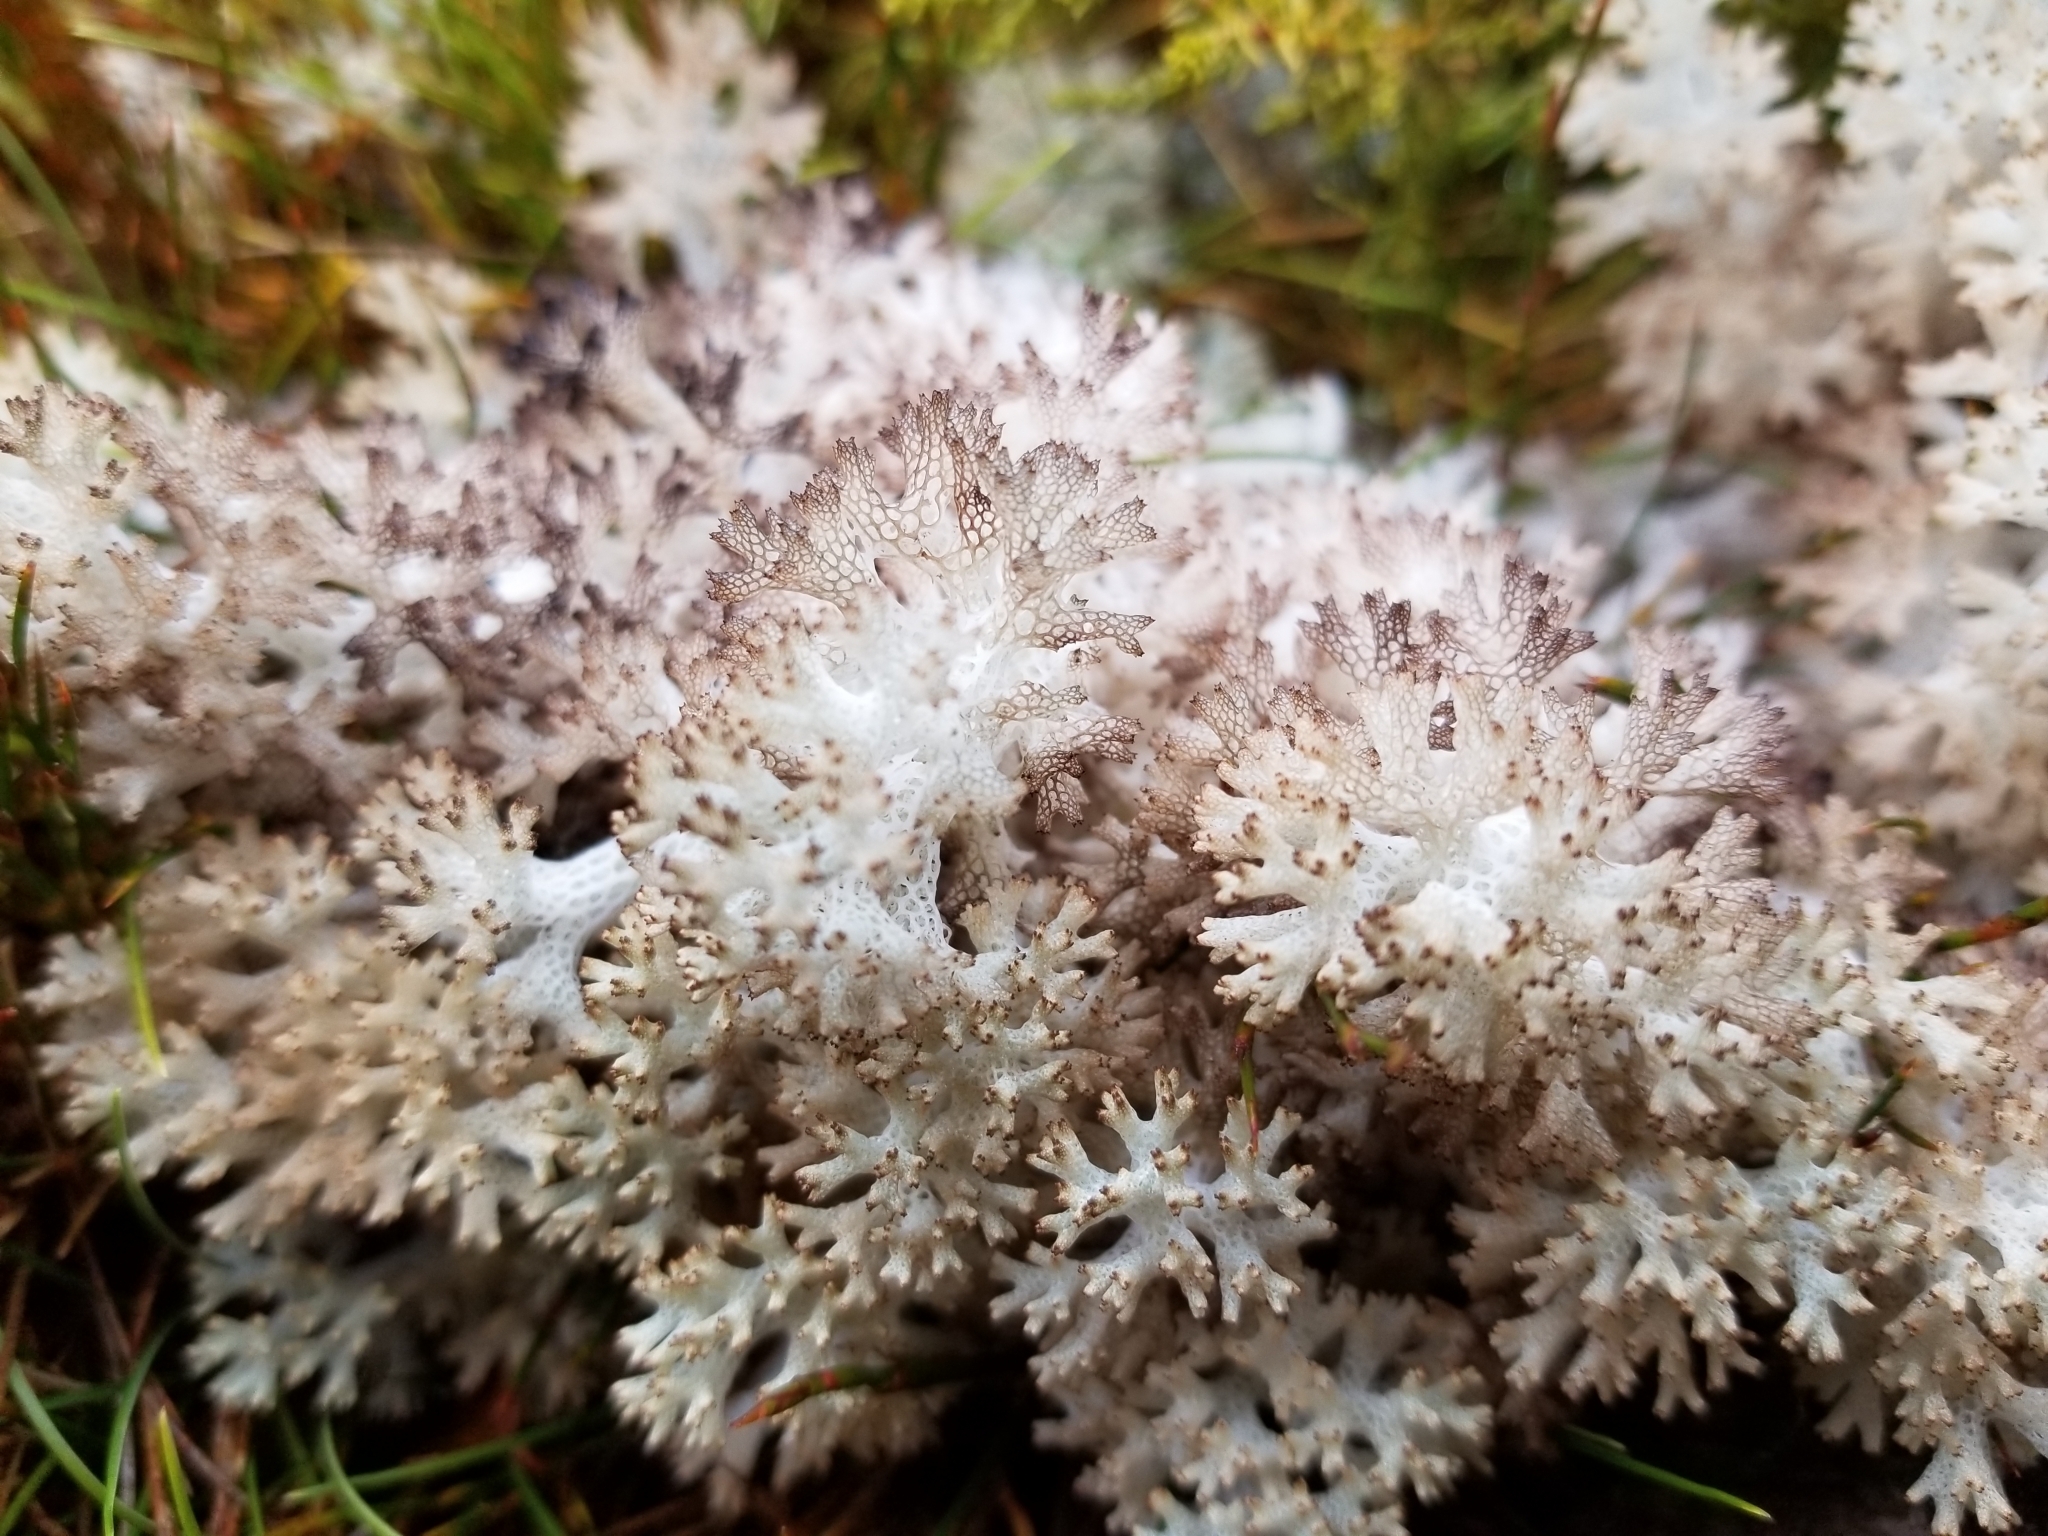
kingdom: Fungi
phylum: Ascomycota
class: Lecanoromycetes
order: Lecanorales
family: Cladoniaceae
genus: Pulchrocladia
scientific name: Pulchrocladia retipora
